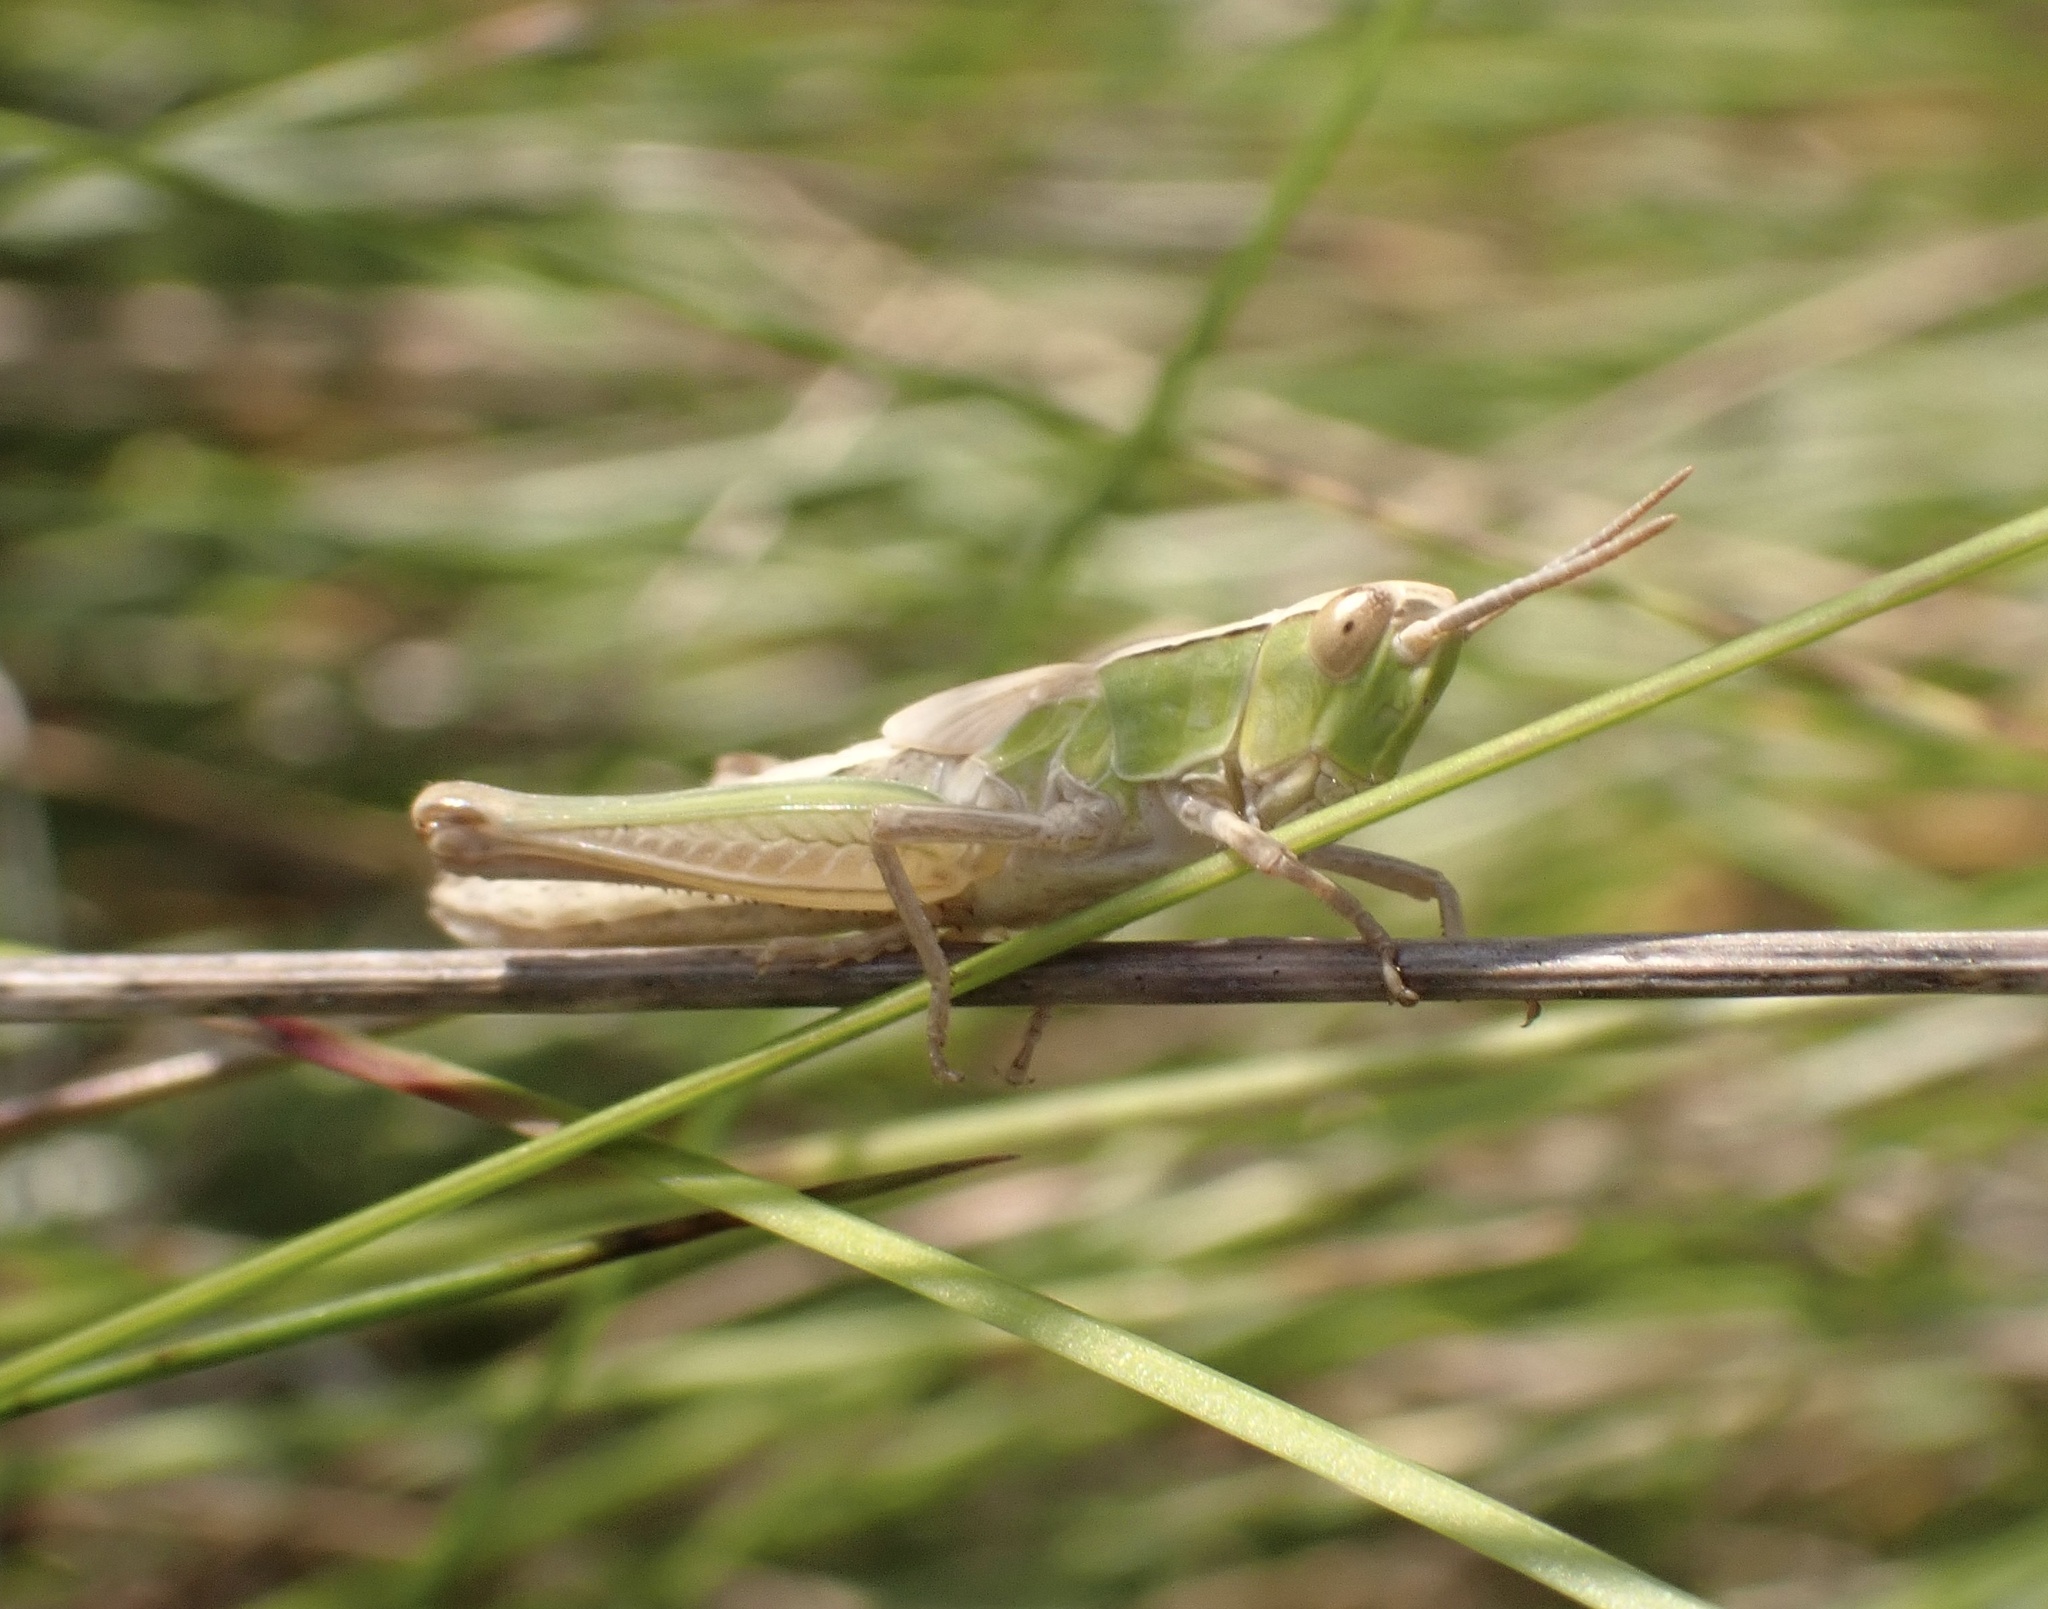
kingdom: Animalia
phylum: Arthropoda
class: Insecta
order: Orthoptera
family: Acrididae
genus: Chorthippus
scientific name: Chorthippus albomarginatus
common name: Lesser marsh grasshopper
